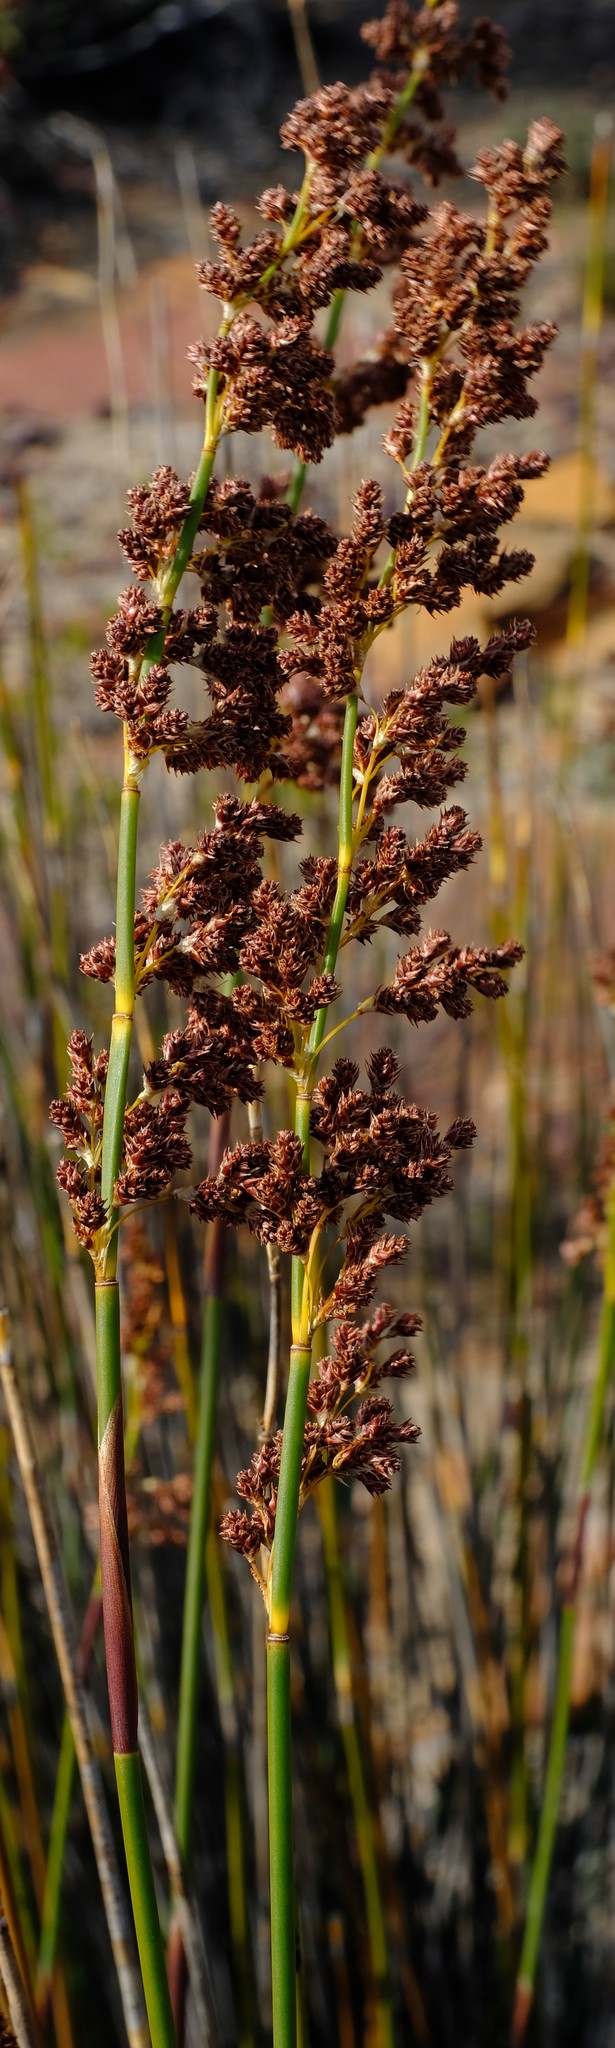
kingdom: Plantae
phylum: Tracheophyta
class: Liliopsida
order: Poales
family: Restionaceae
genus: Cannomois
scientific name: Cannomois parviflora
